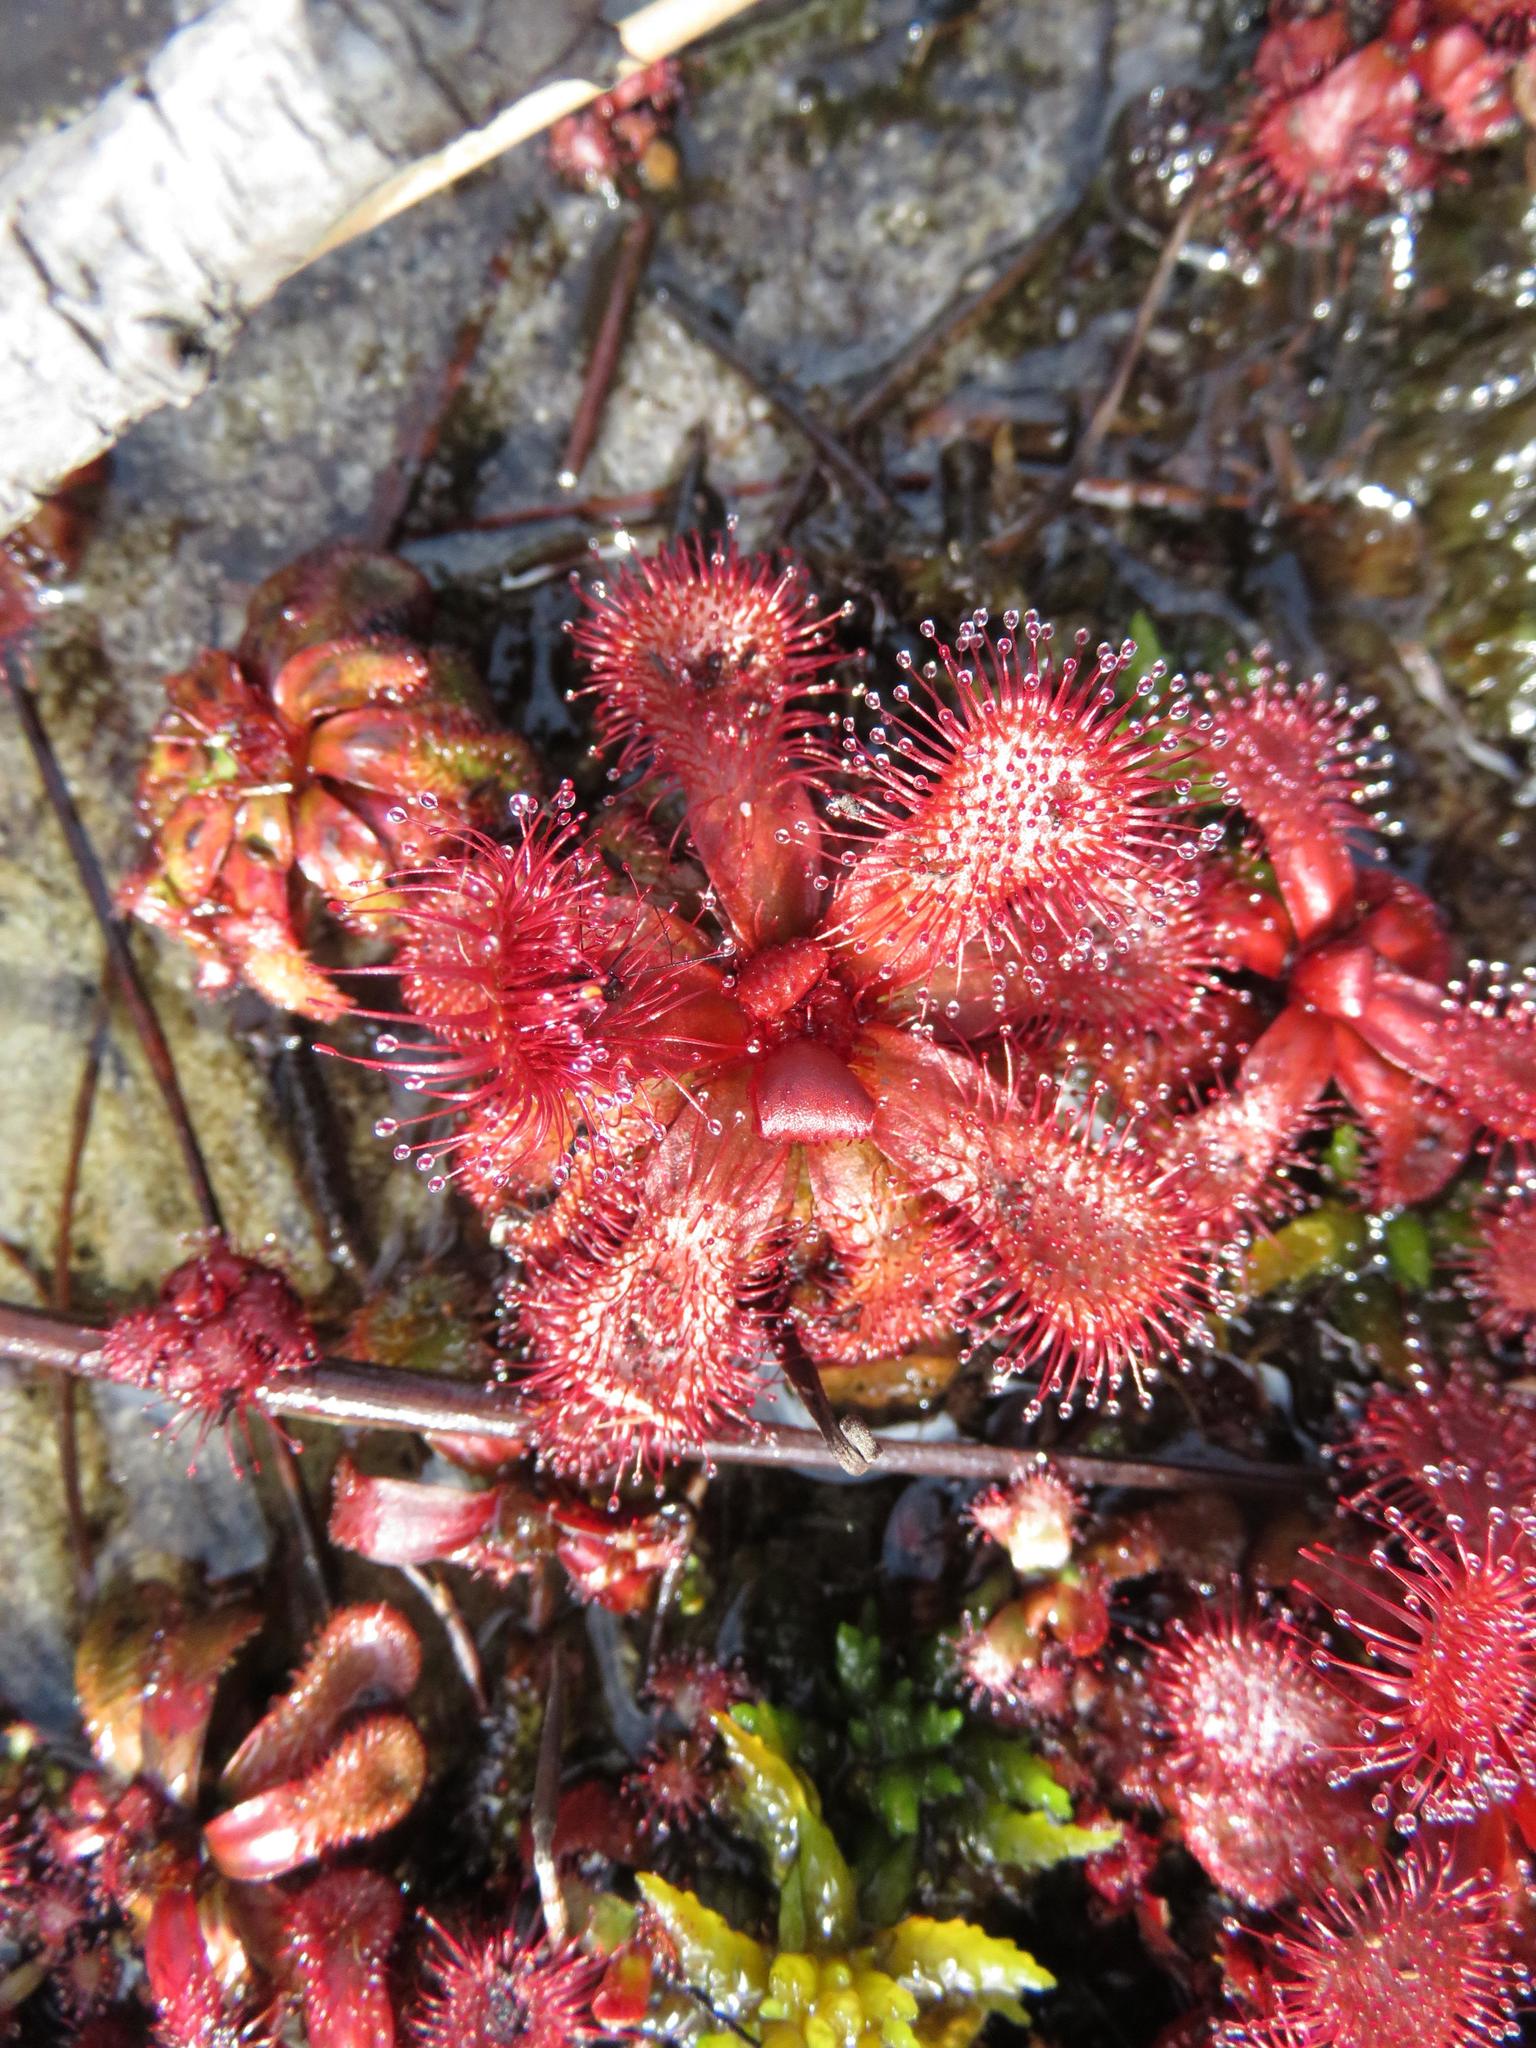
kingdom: Plantae
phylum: Tracheophyta
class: Magnoliopsida
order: Caryophyllales
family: Droseraceae
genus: Drosera
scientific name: Drosera slackii
